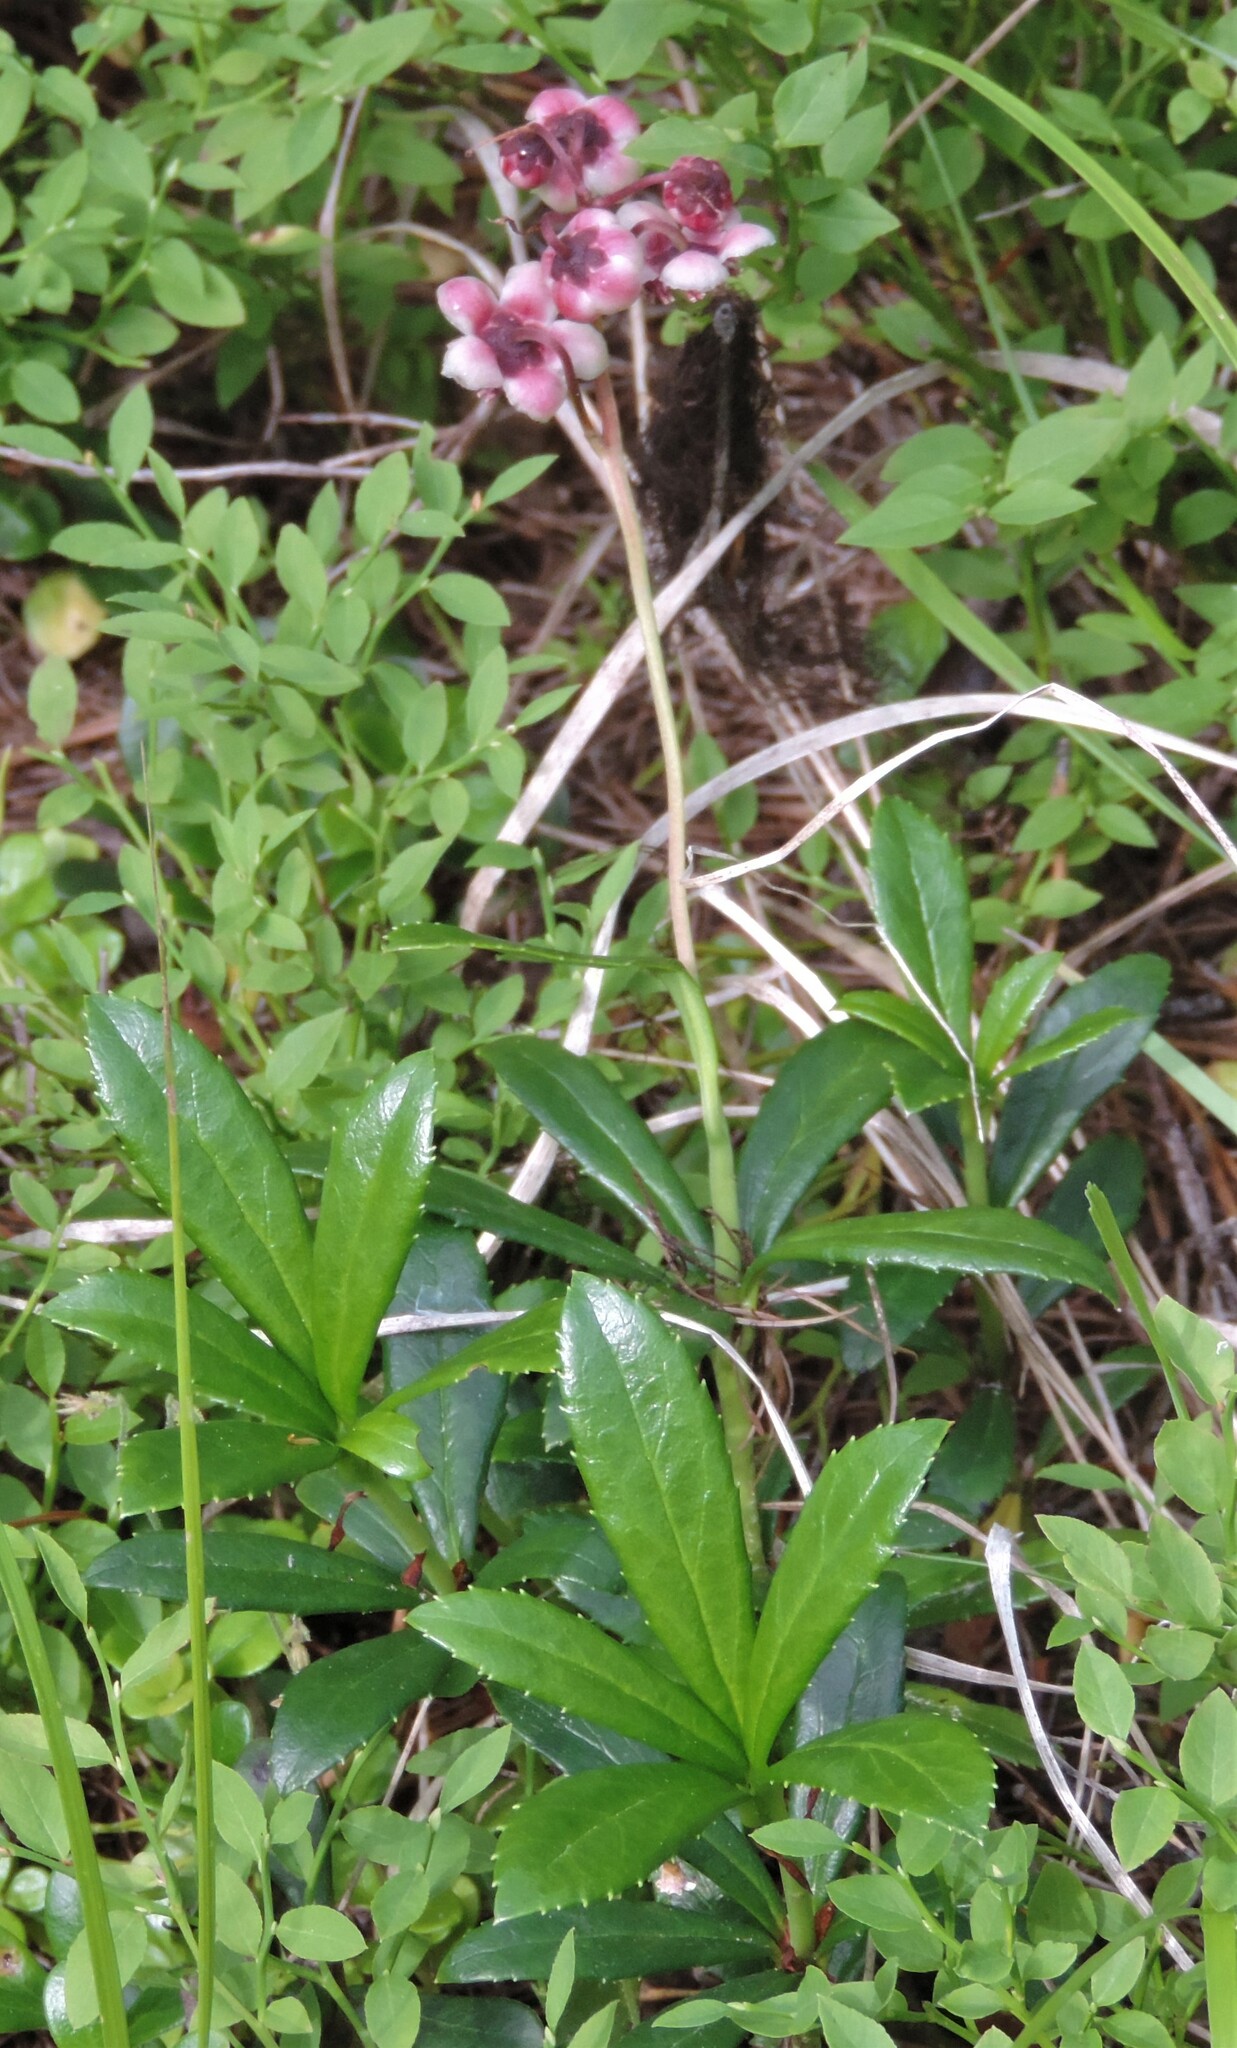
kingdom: Plantae
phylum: Tracheophyta
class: Magnoliopsida
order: Ericales
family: Ericaceae
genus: Chimaphila
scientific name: Chimaphila umbellata
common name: Pipsissewa
